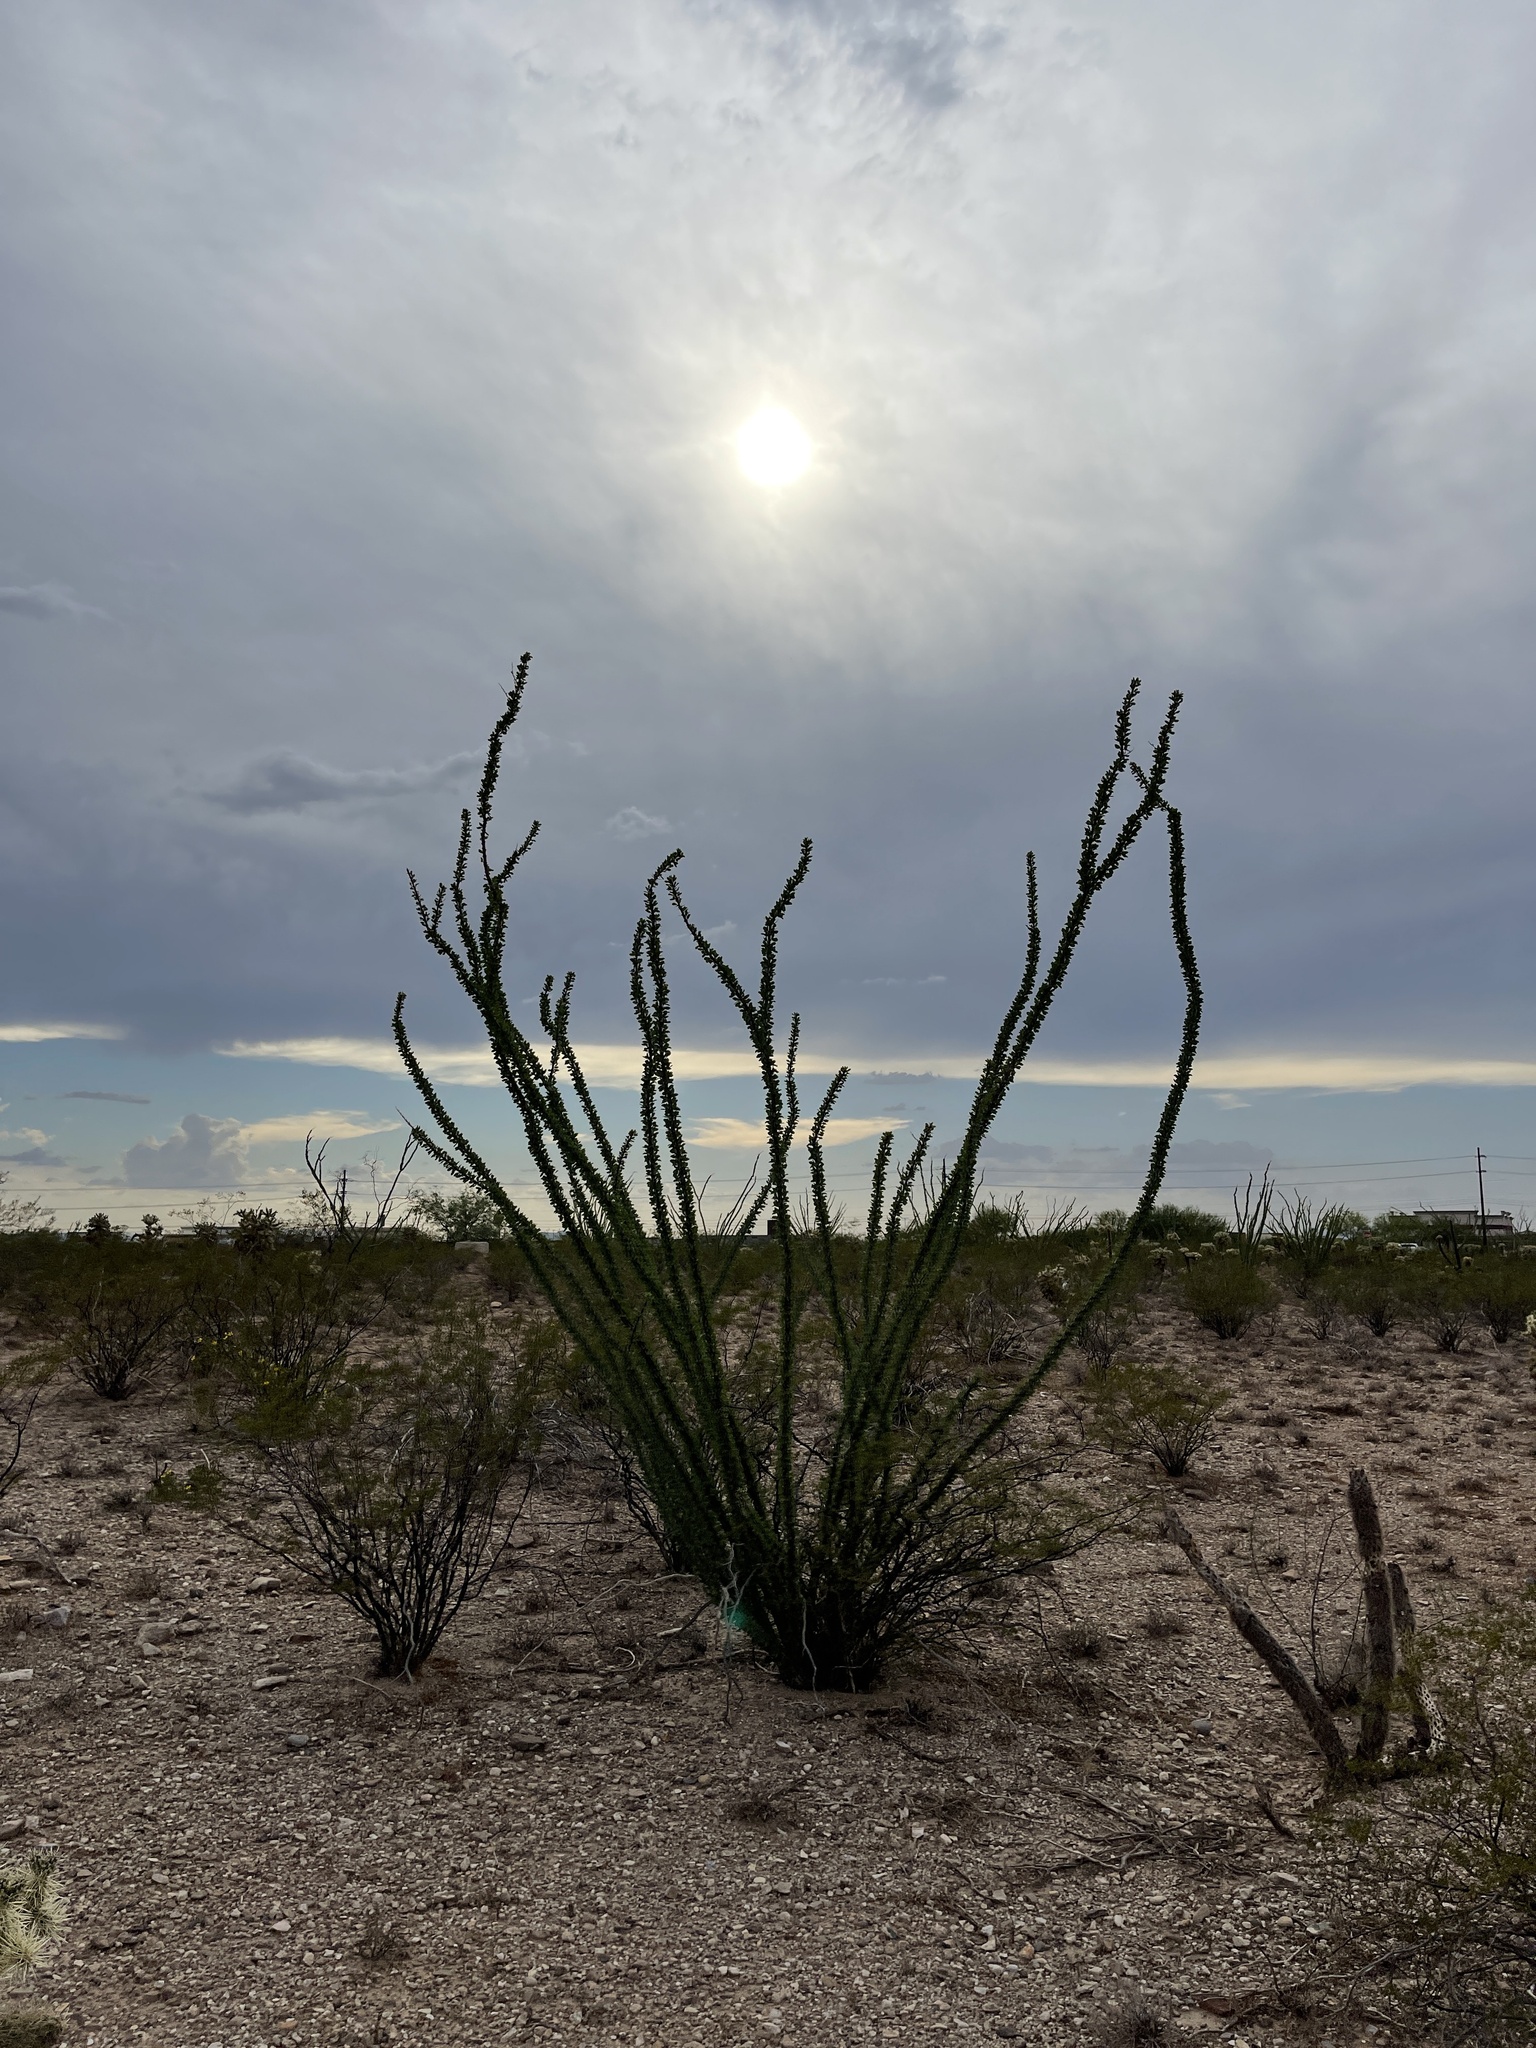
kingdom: Plantae
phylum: Tracheophyta
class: Magnoliopsida
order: Ericales
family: Fouquieriaceae
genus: Fouquieria
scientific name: Fouquieria splendens
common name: Vine-cactus
